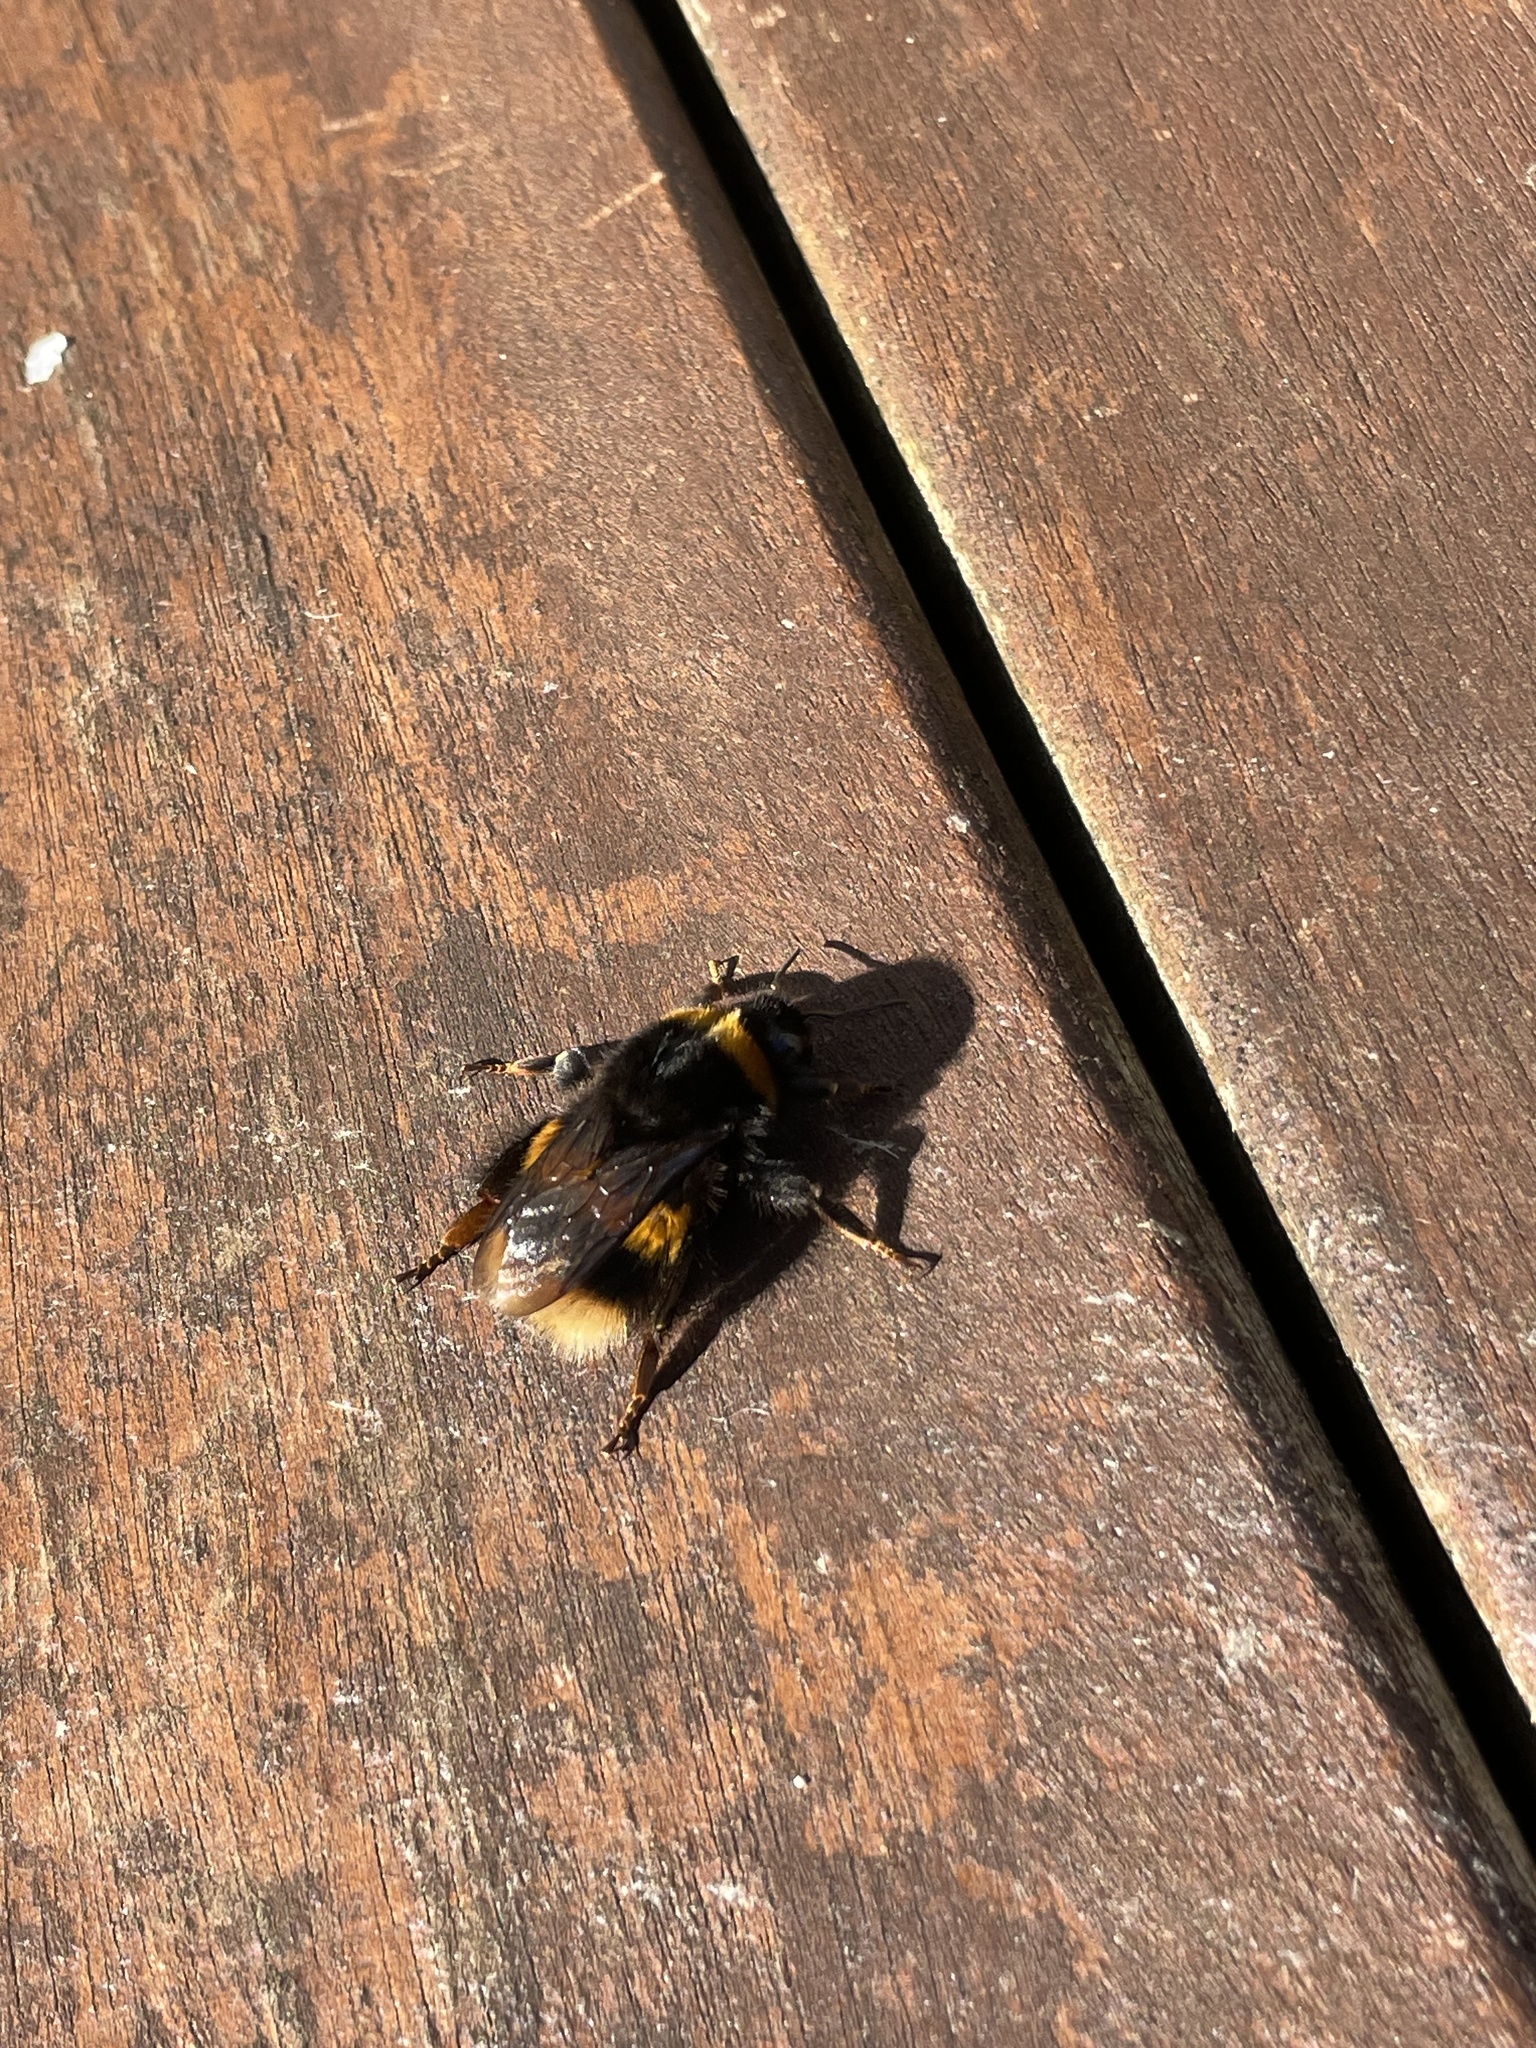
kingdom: Animalia
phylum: Arthropoda
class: Insecta
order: Hymenoptera
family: Apidae
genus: Bombus
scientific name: Bombus terrestris
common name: Buff-tailed bumblebee
